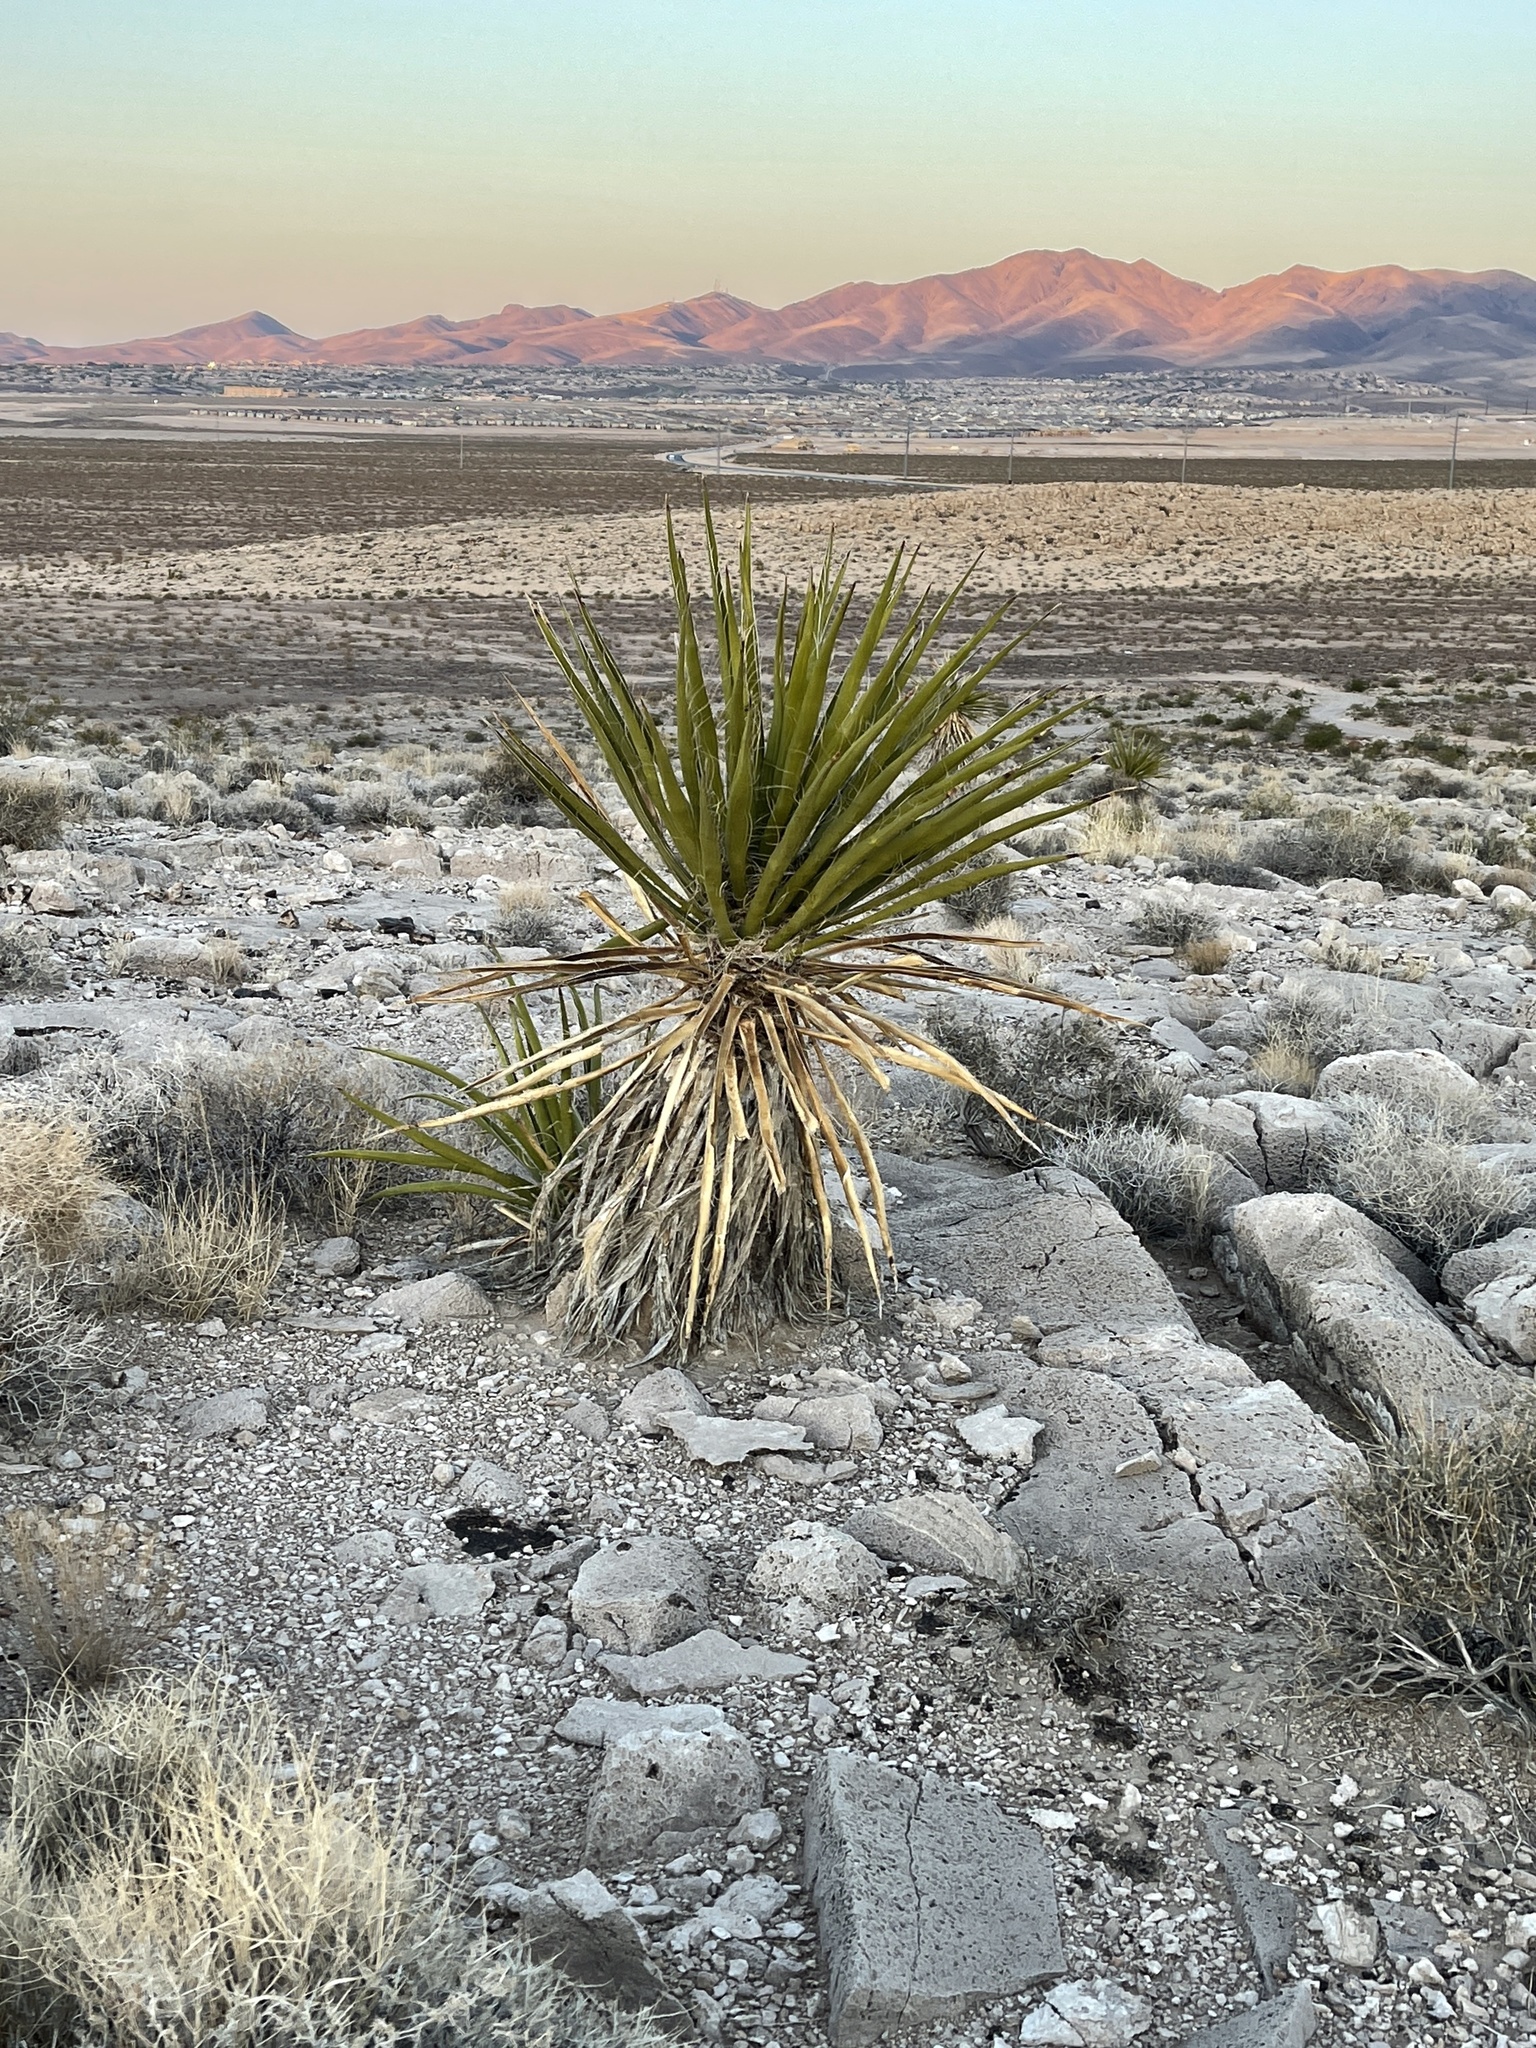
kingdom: Plantae
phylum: Tracheophyta
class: Liliopsida
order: Asparagales
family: Asparagaceae
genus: Yucca
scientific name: Yucca schidigera
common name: Mojave yucca
